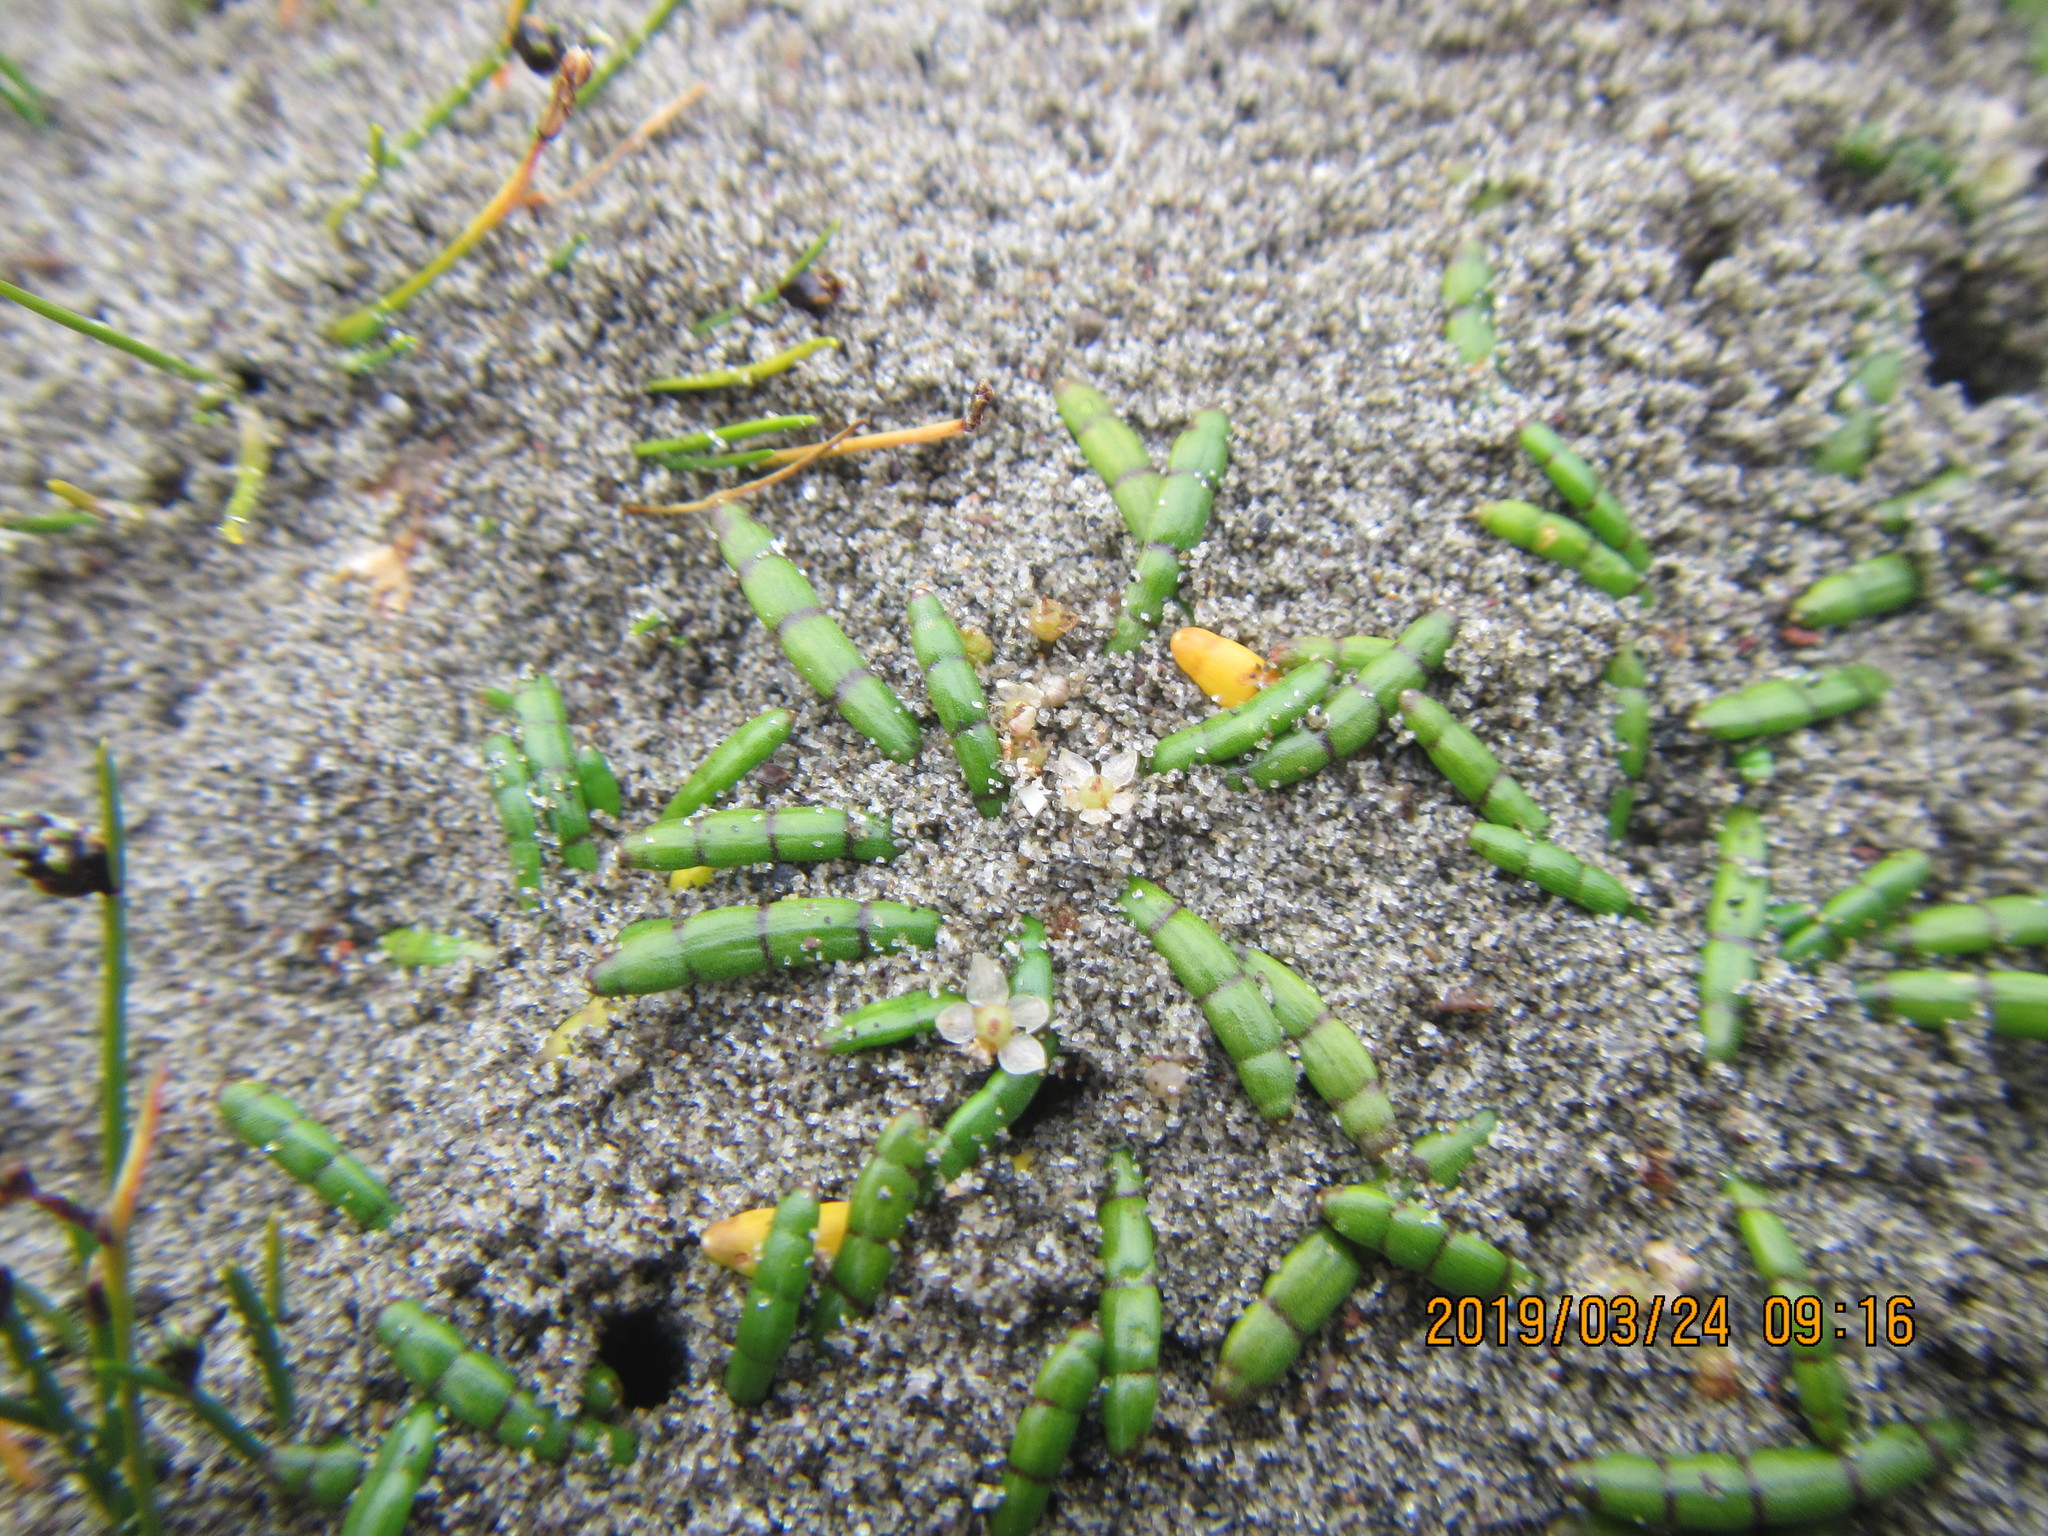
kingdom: Plantae
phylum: Tracheophyta
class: Magnoliopsida
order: Apiales
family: Apiaceae
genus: Lilaeopsis
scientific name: Lilaeopsis novae-zelandiae
